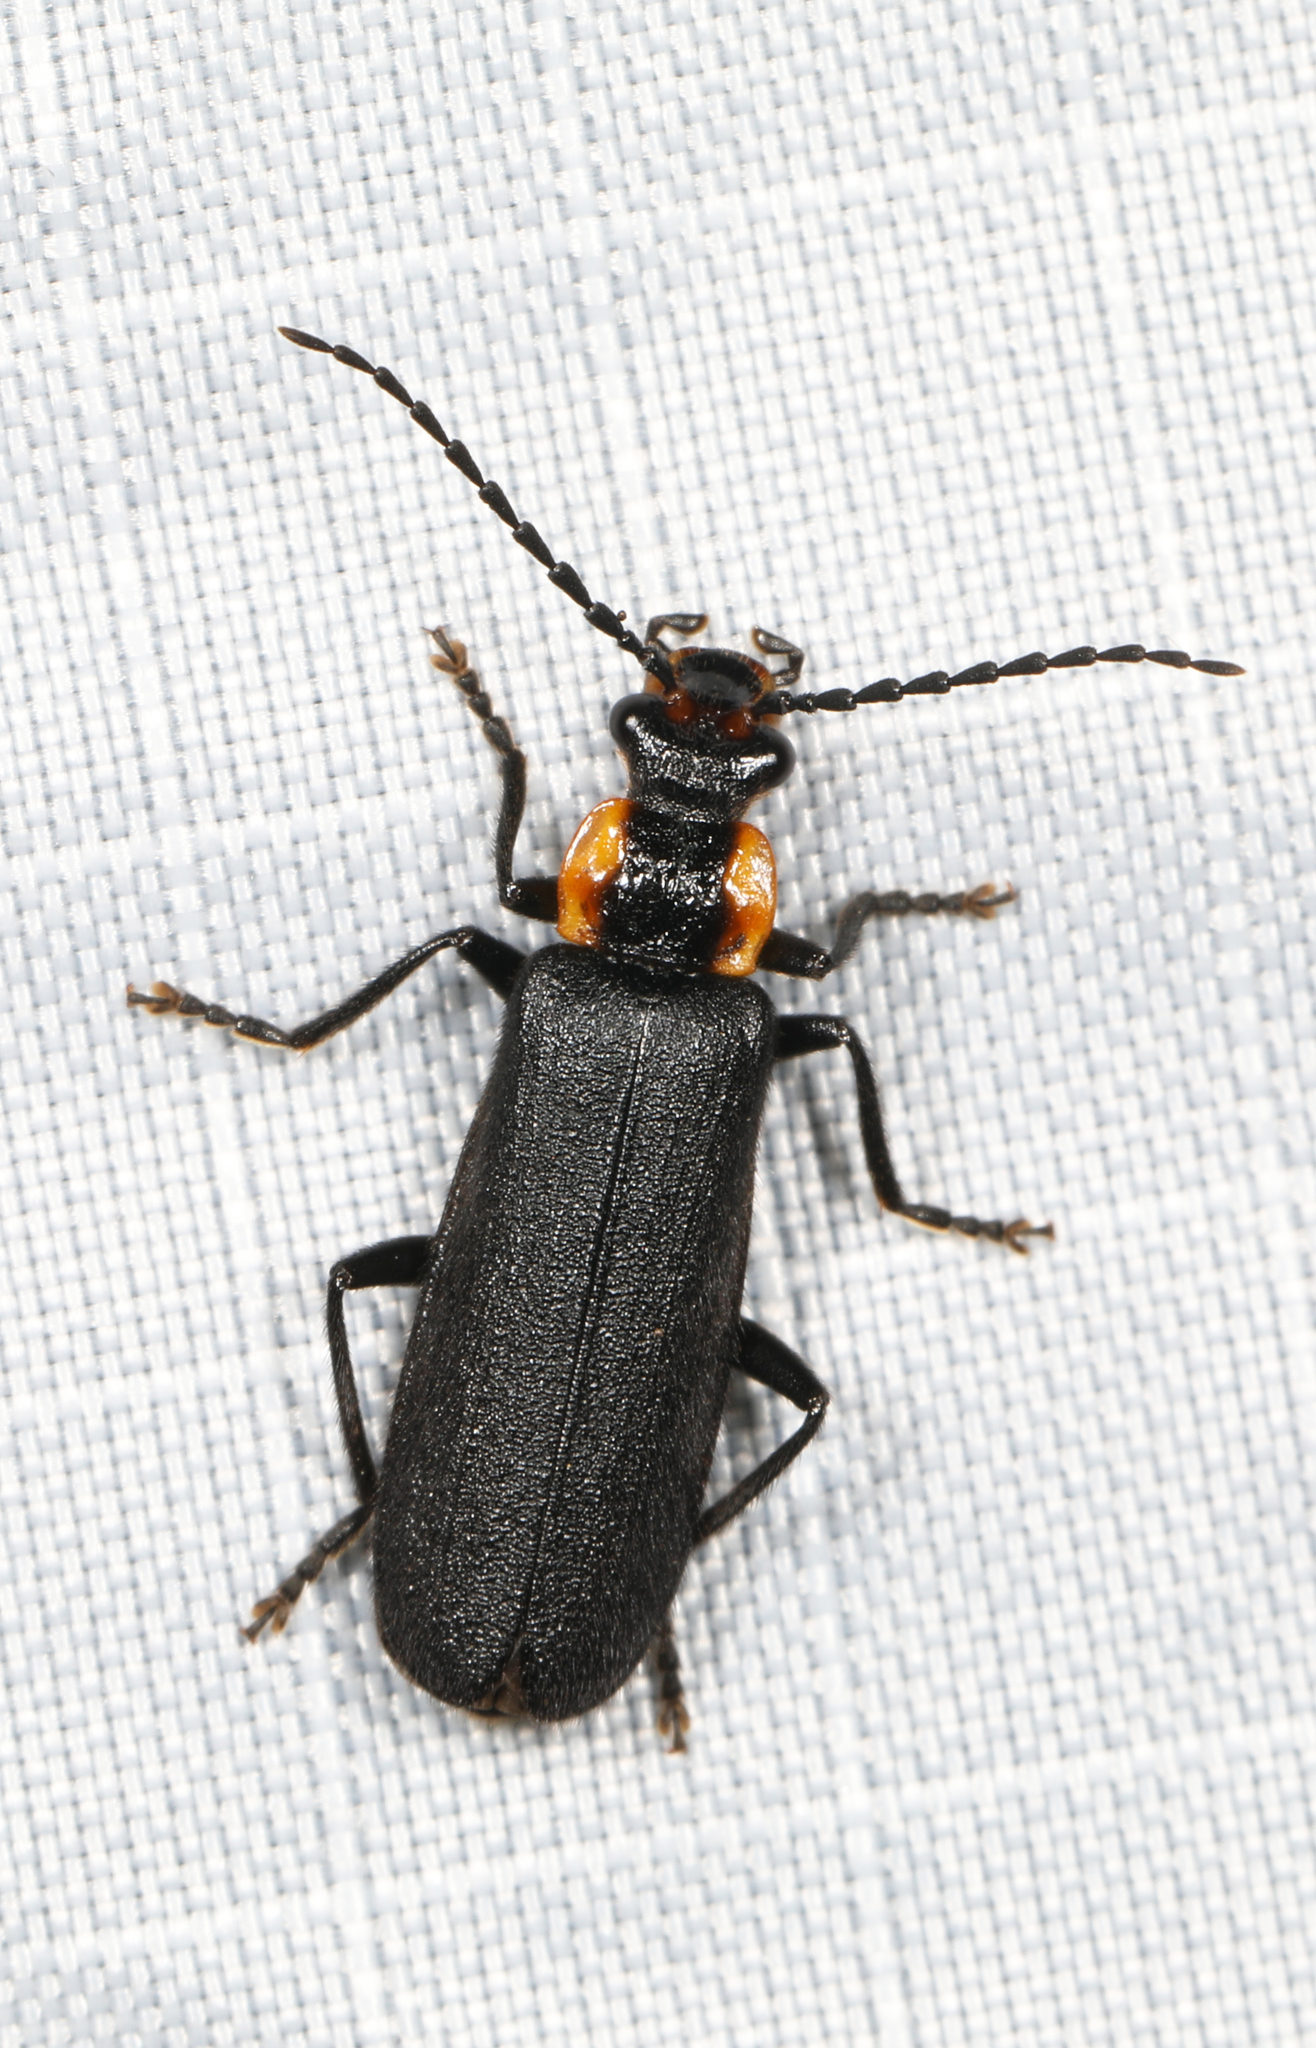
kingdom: Animalia
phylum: Arthropoda
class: Insecta
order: Coleoptera
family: Cantharidae
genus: Podabrus
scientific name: Podabrus frater
